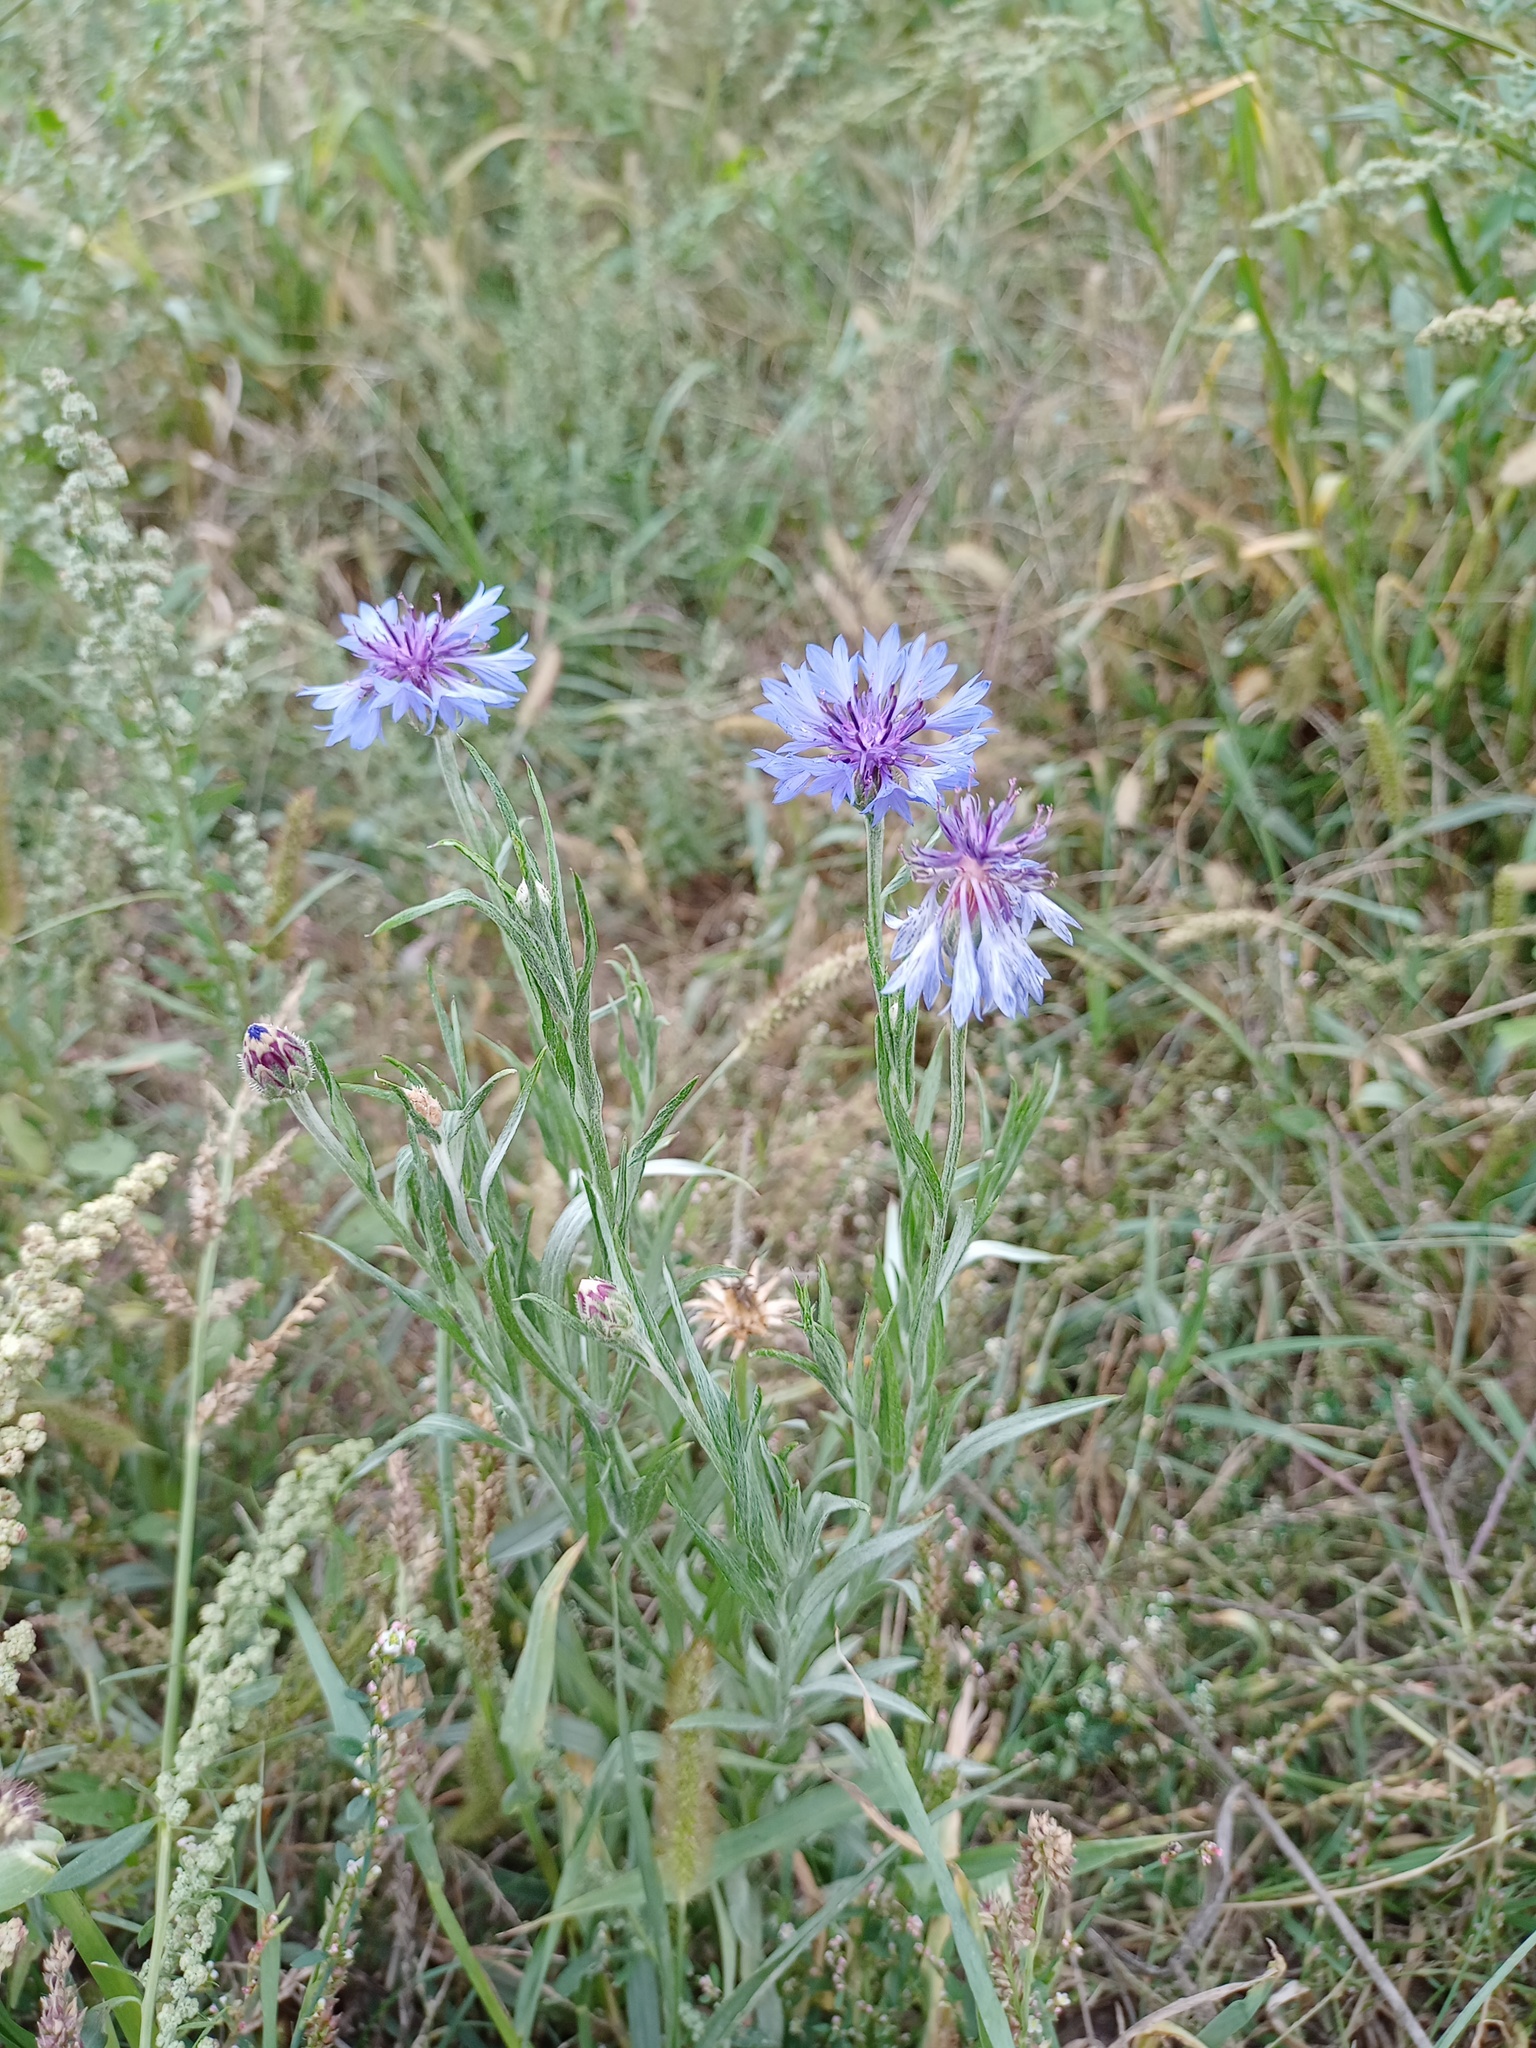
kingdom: Plantae
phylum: Tracheophyta
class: Magnoliopsida
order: Asterales
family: Asteraceae
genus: Centaurea
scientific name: Centaurea cyanus
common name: Cornflower
